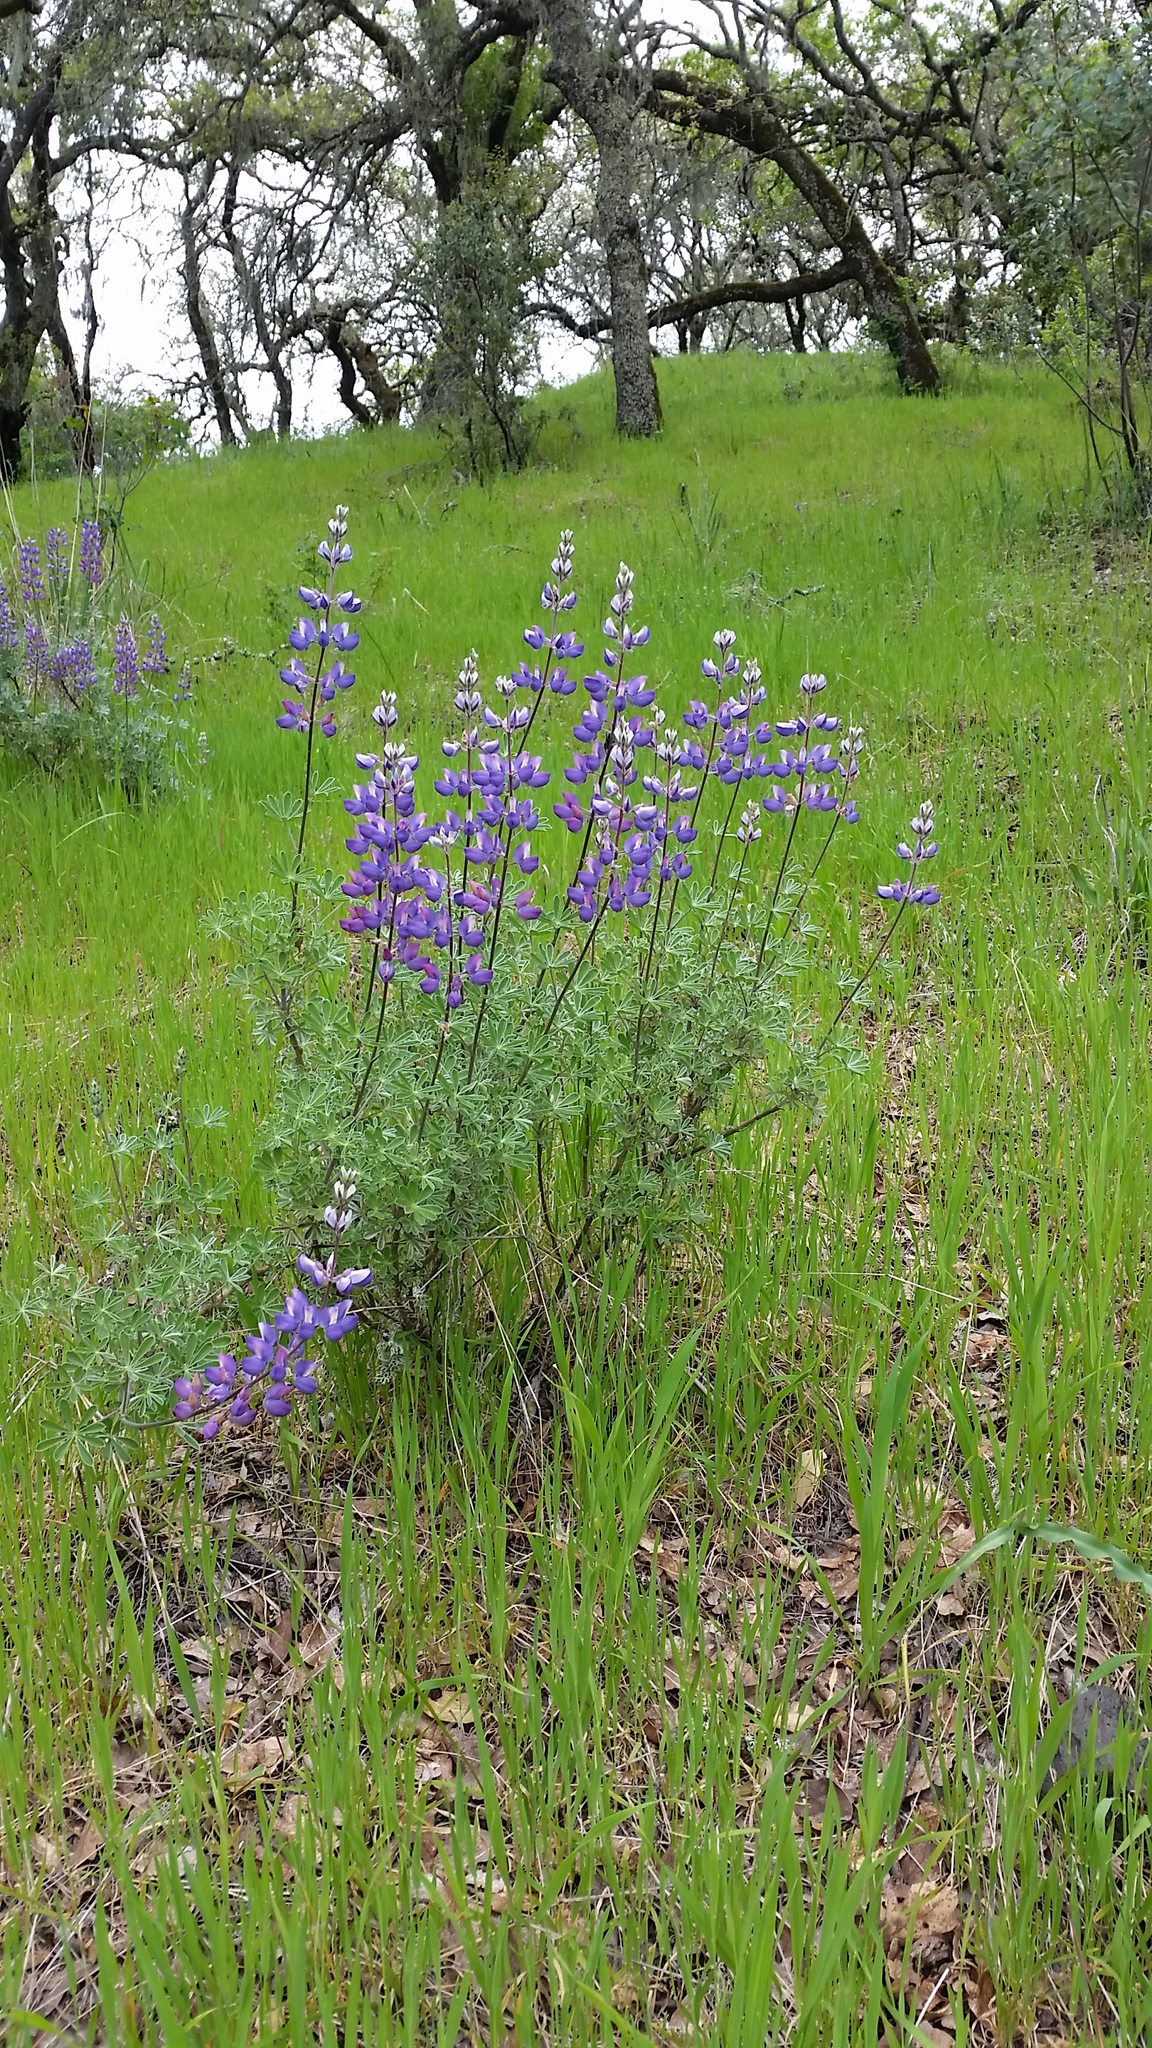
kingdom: Plantae
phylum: Tracheophyta
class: Magnoliopsida
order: Fabales
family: Fabaceae
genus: Lupinus
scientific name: Lupinus albifrons
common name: Foothill lupine
